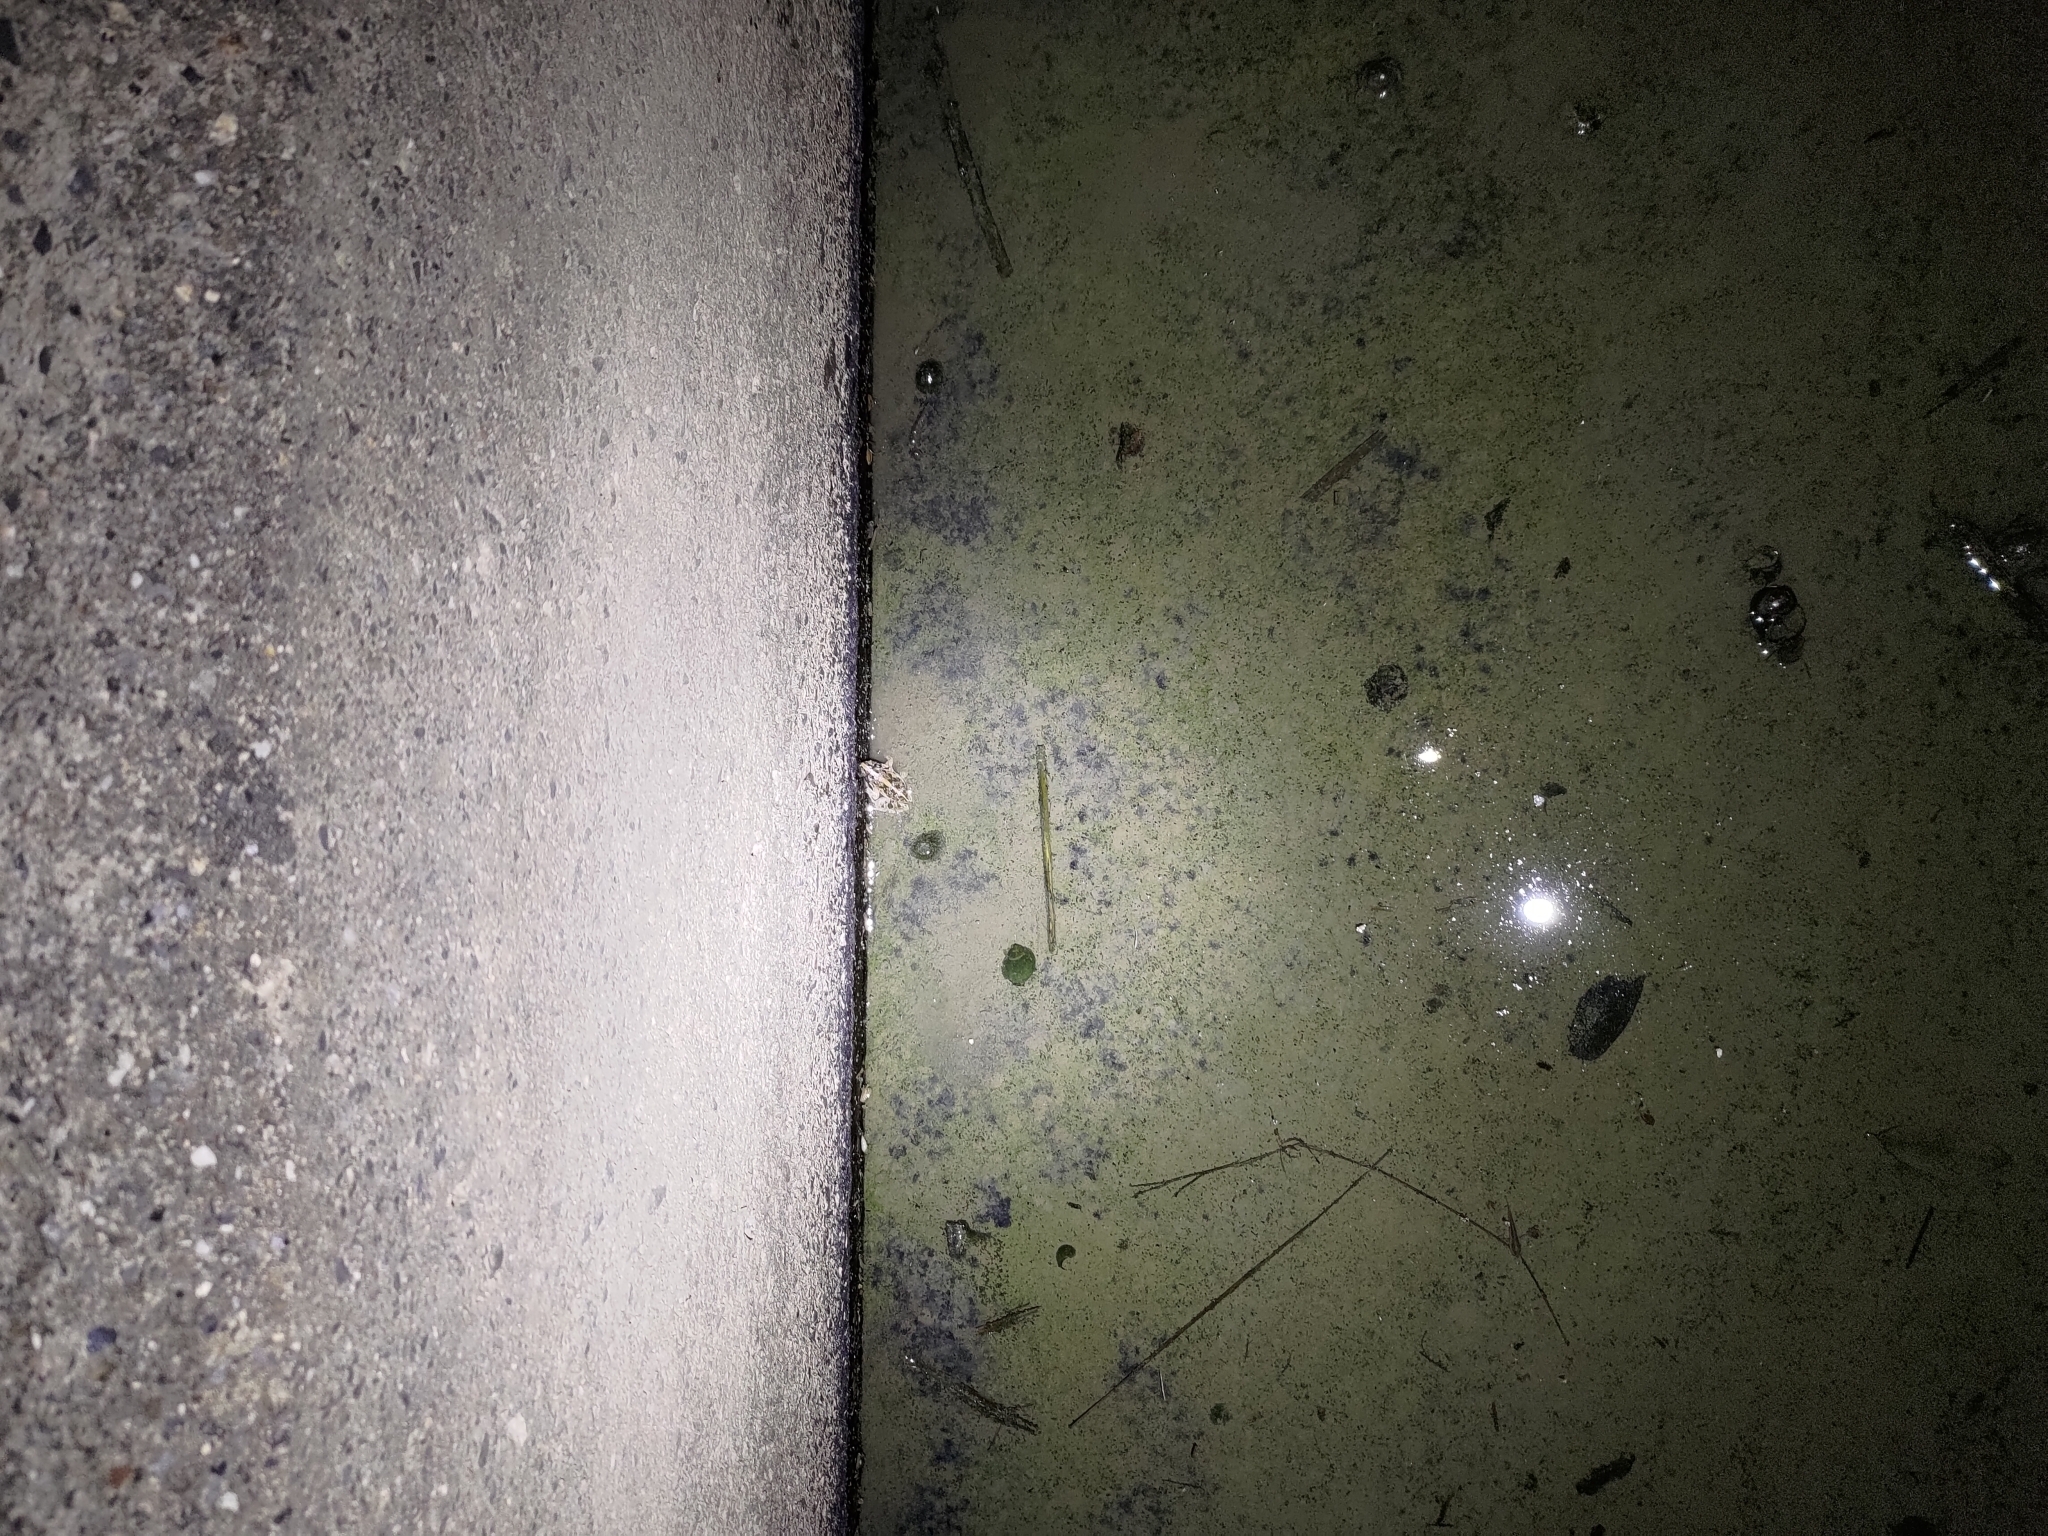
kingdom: Animalia
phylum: Chordata
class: Amphibia
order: Anura
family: Dicroglossidae
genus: Fejervarya
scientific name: Fejervarya limnocharis
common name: Asian grass frog/common pond frog/field frog/grass frog/indian rice frog
